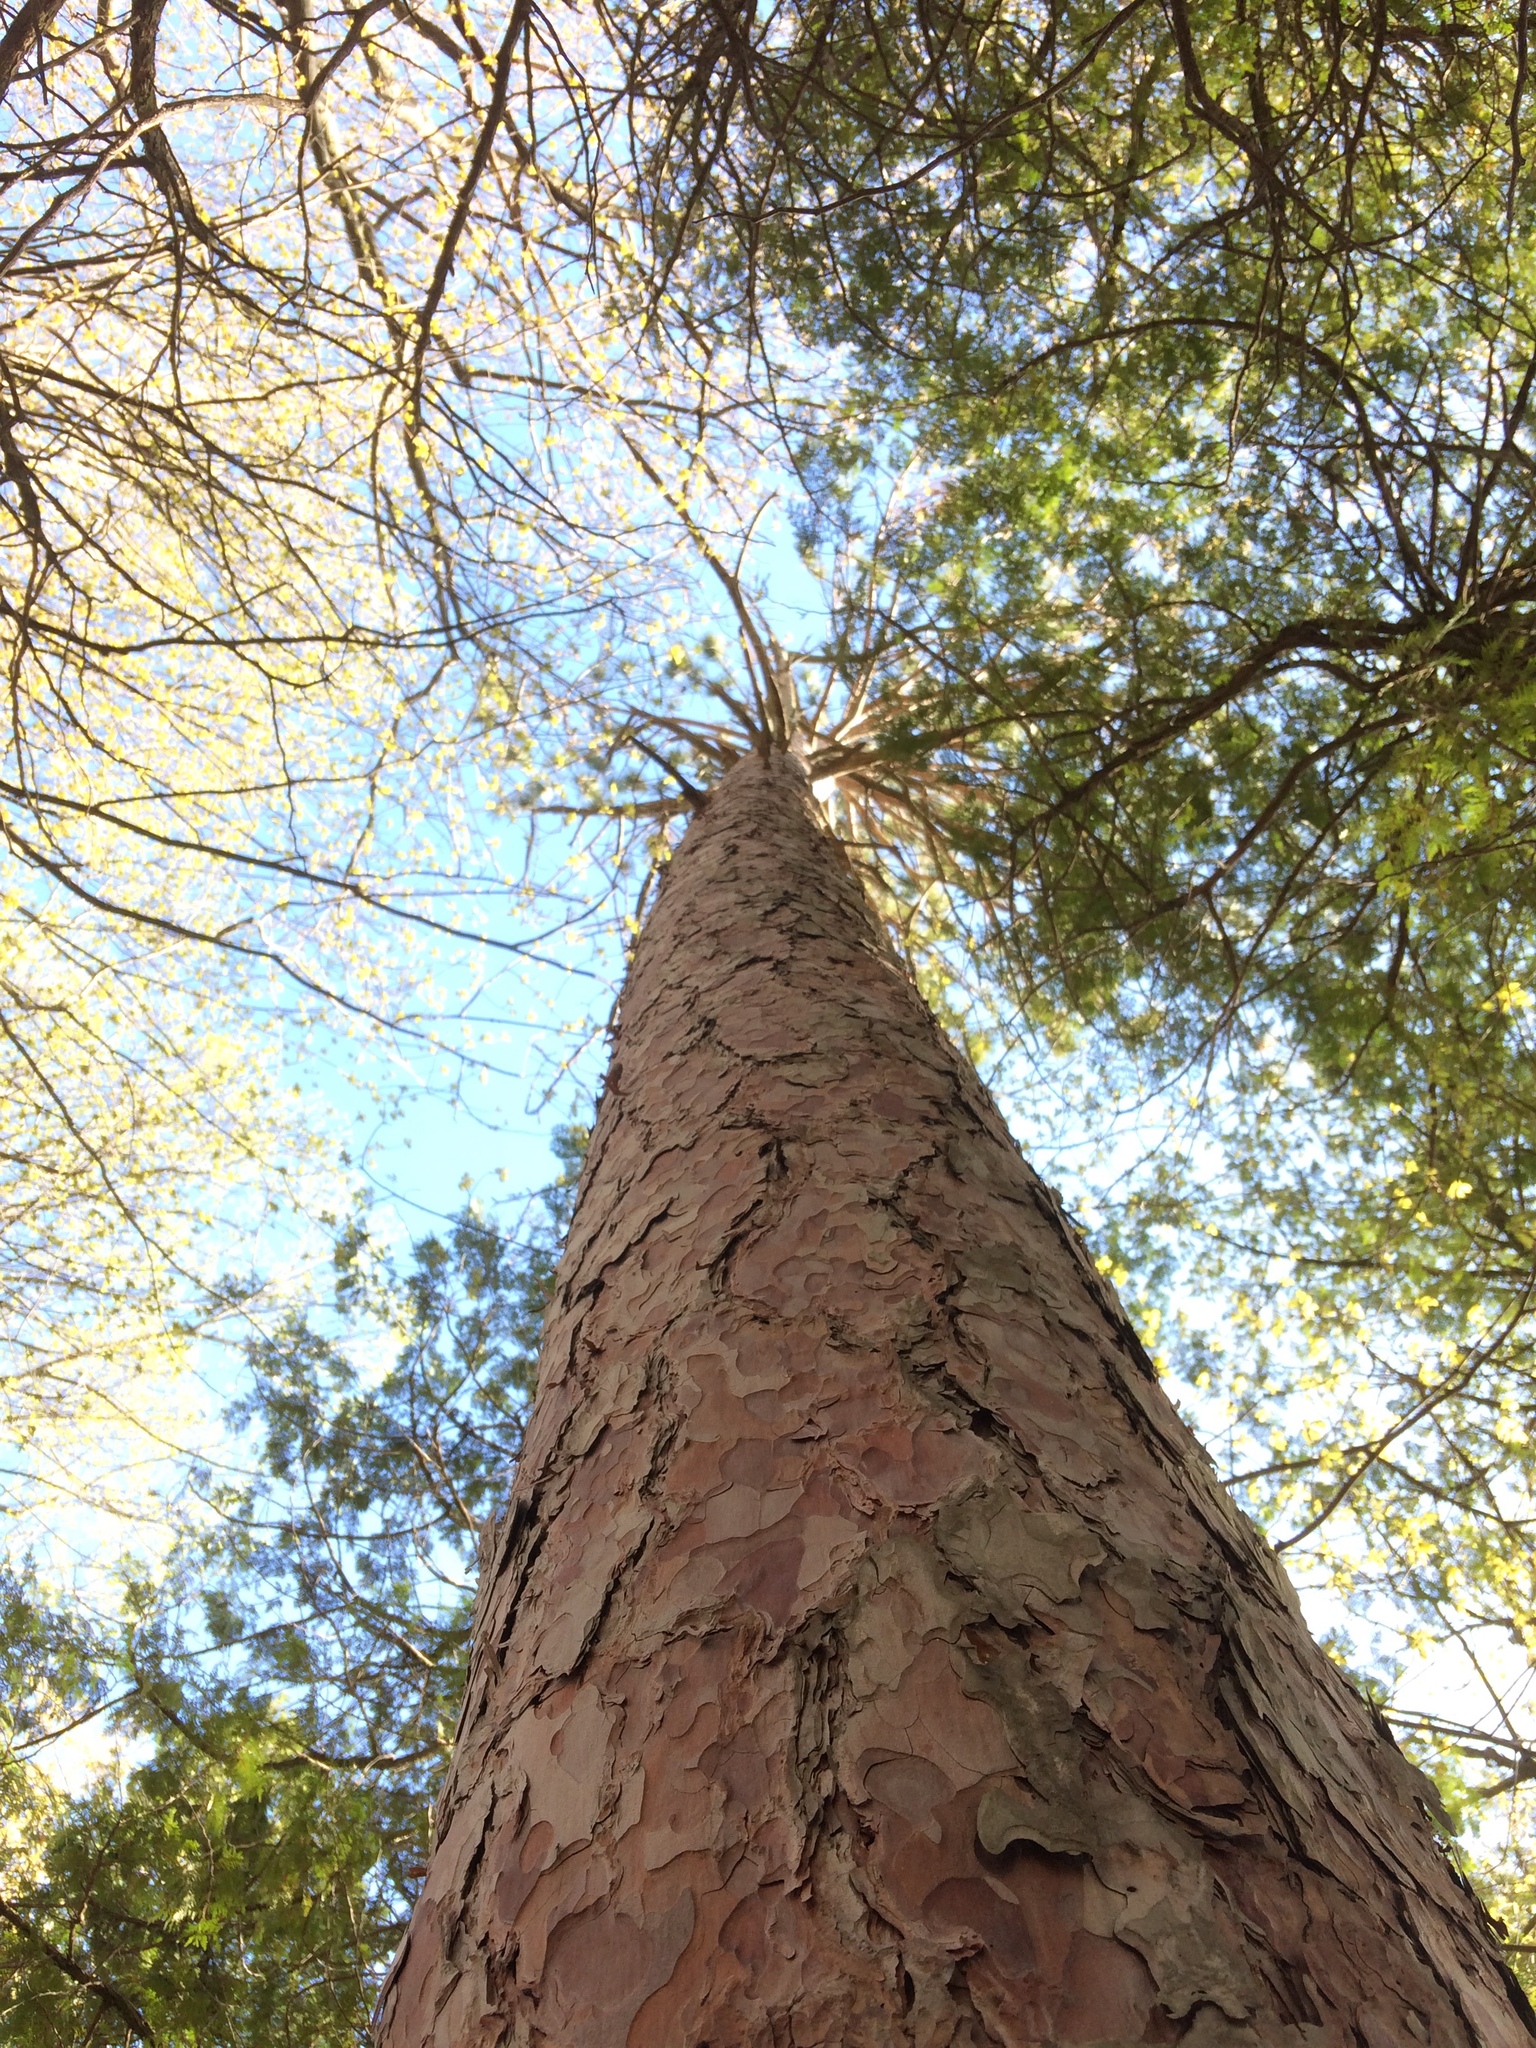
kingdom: Plantae
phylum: Tracheophyta
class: Pinopsida
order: Pinales
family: Pinaceae
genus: Pinus
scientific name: Pinus resinosa
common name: Norway pine
